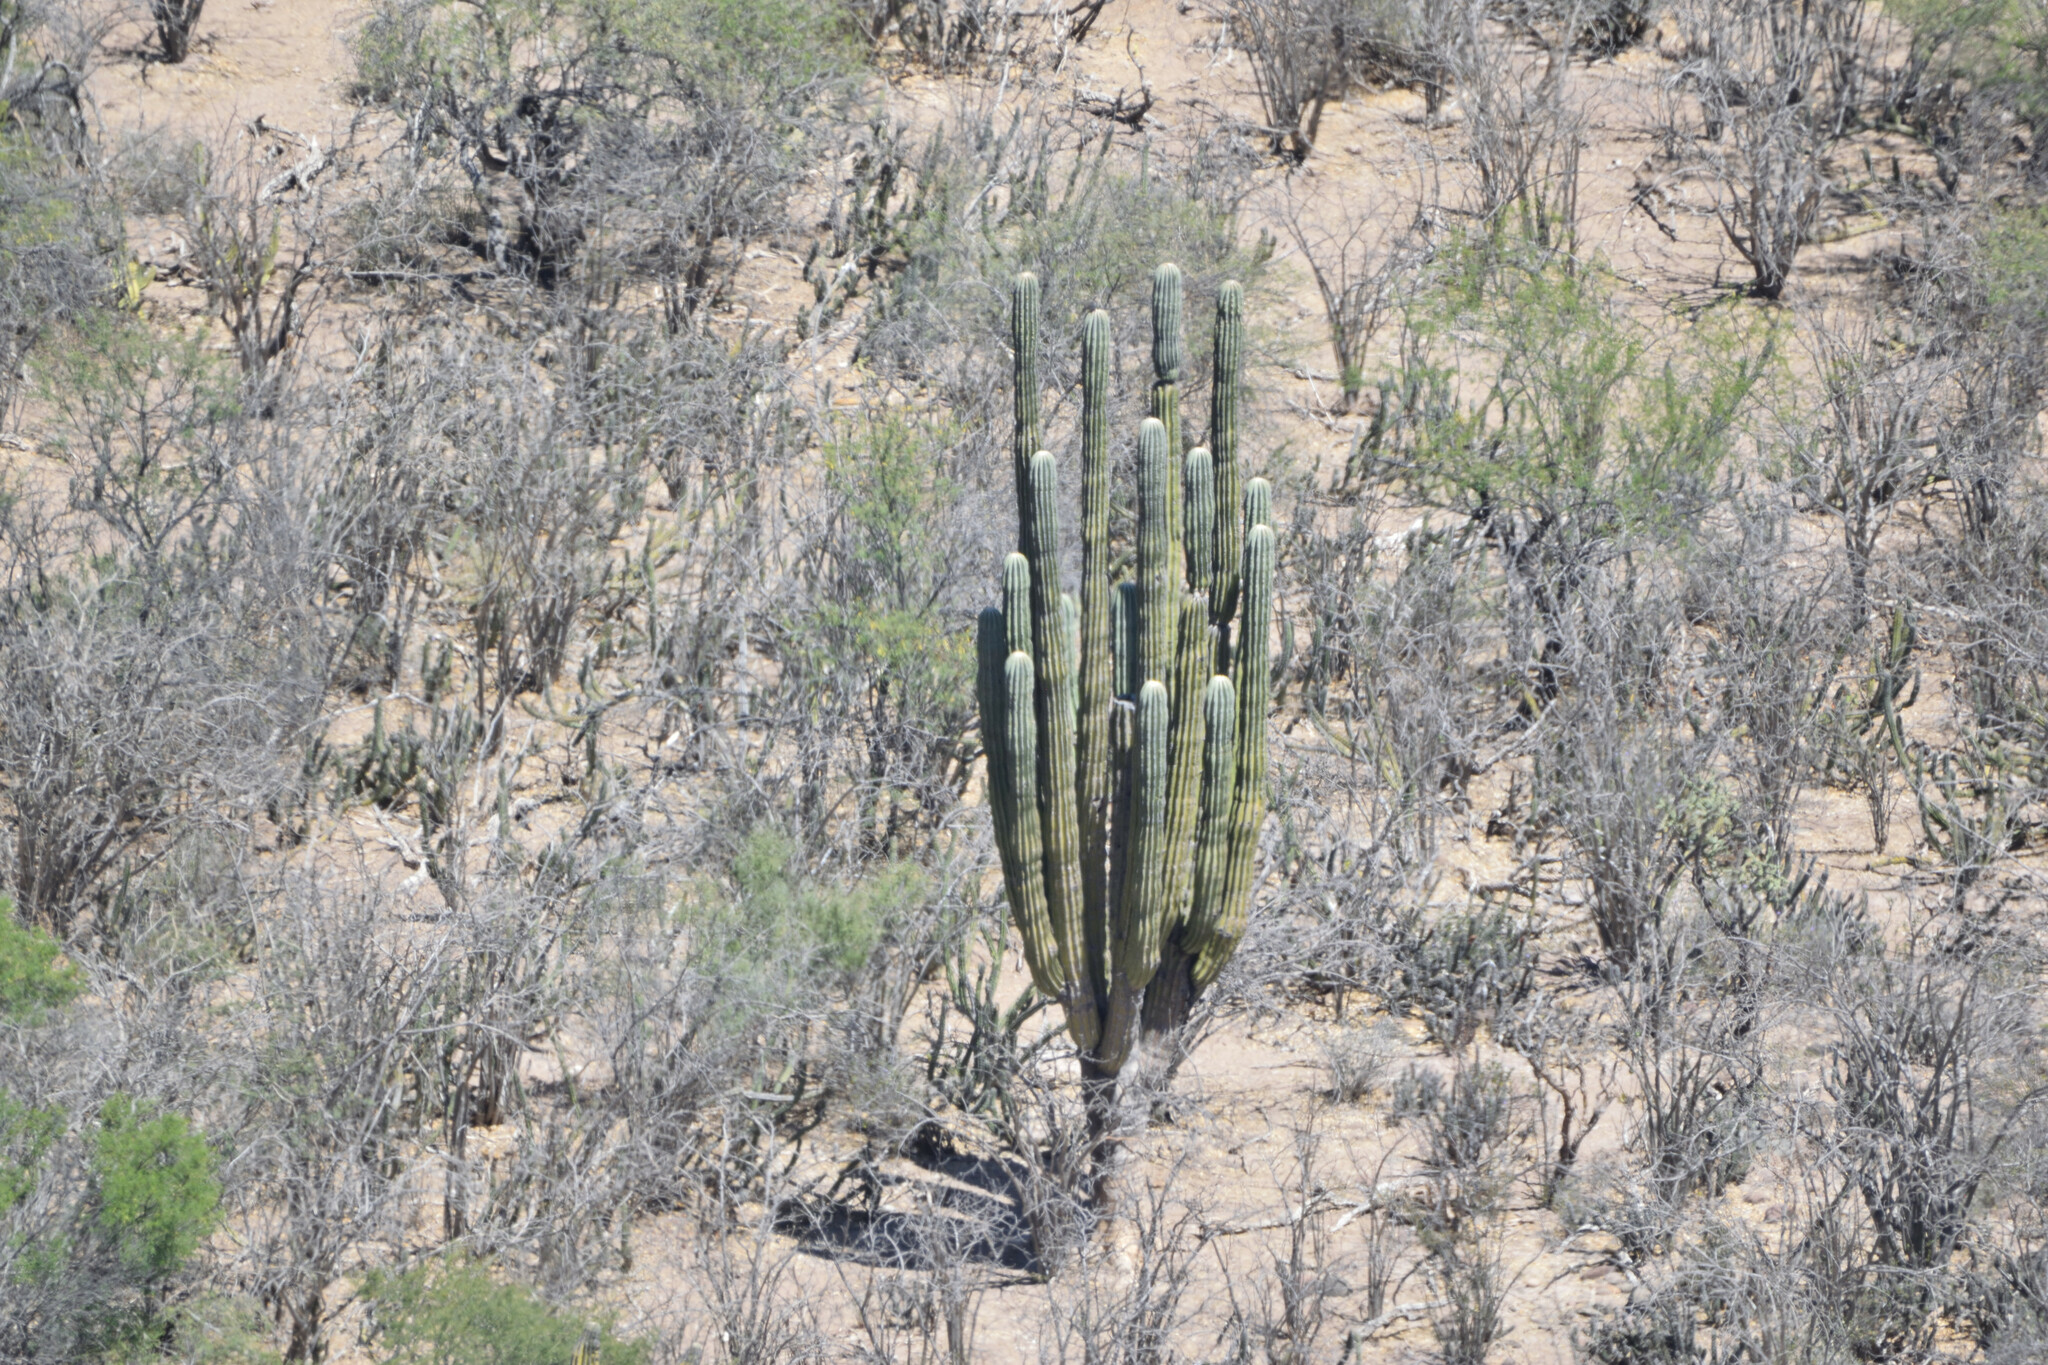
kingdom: Plantae
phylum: Tracheophyta
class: Magnoliopsida
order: Caryophyllales
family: Cactaceae
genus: Pachycereus
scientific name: Pachycereus pringlei
